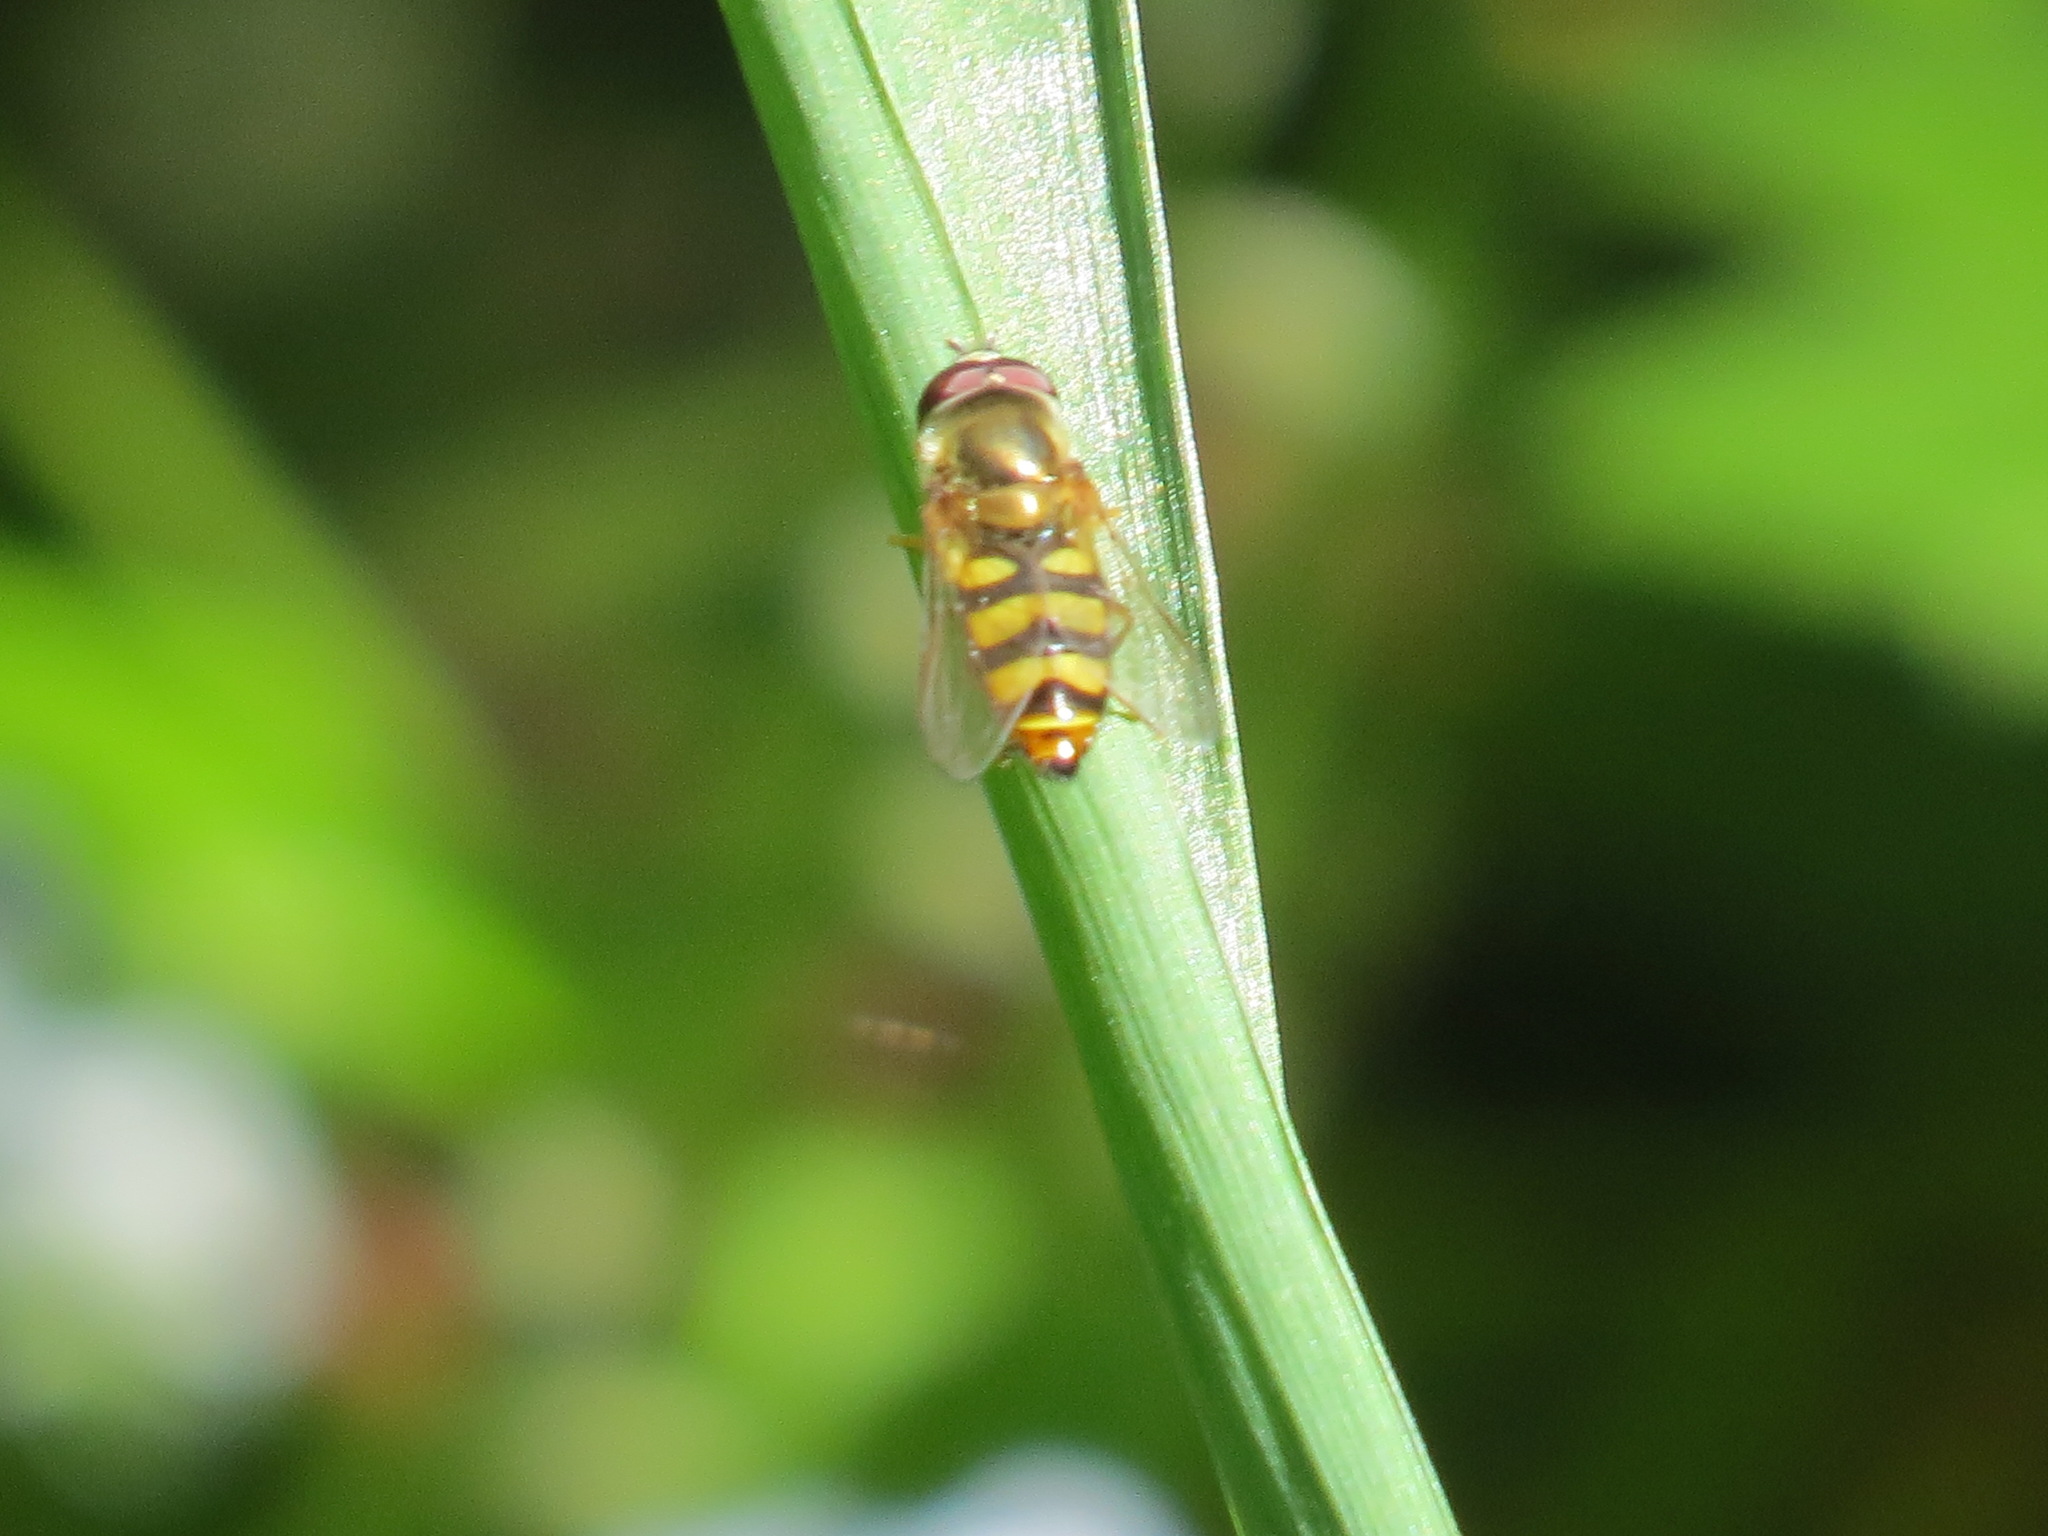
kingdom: Animalia
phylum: Arthropoda
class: Insecta
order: Diptera
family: Syrphidae
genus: Eupeodes
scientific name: Eupeodes fumipennis
